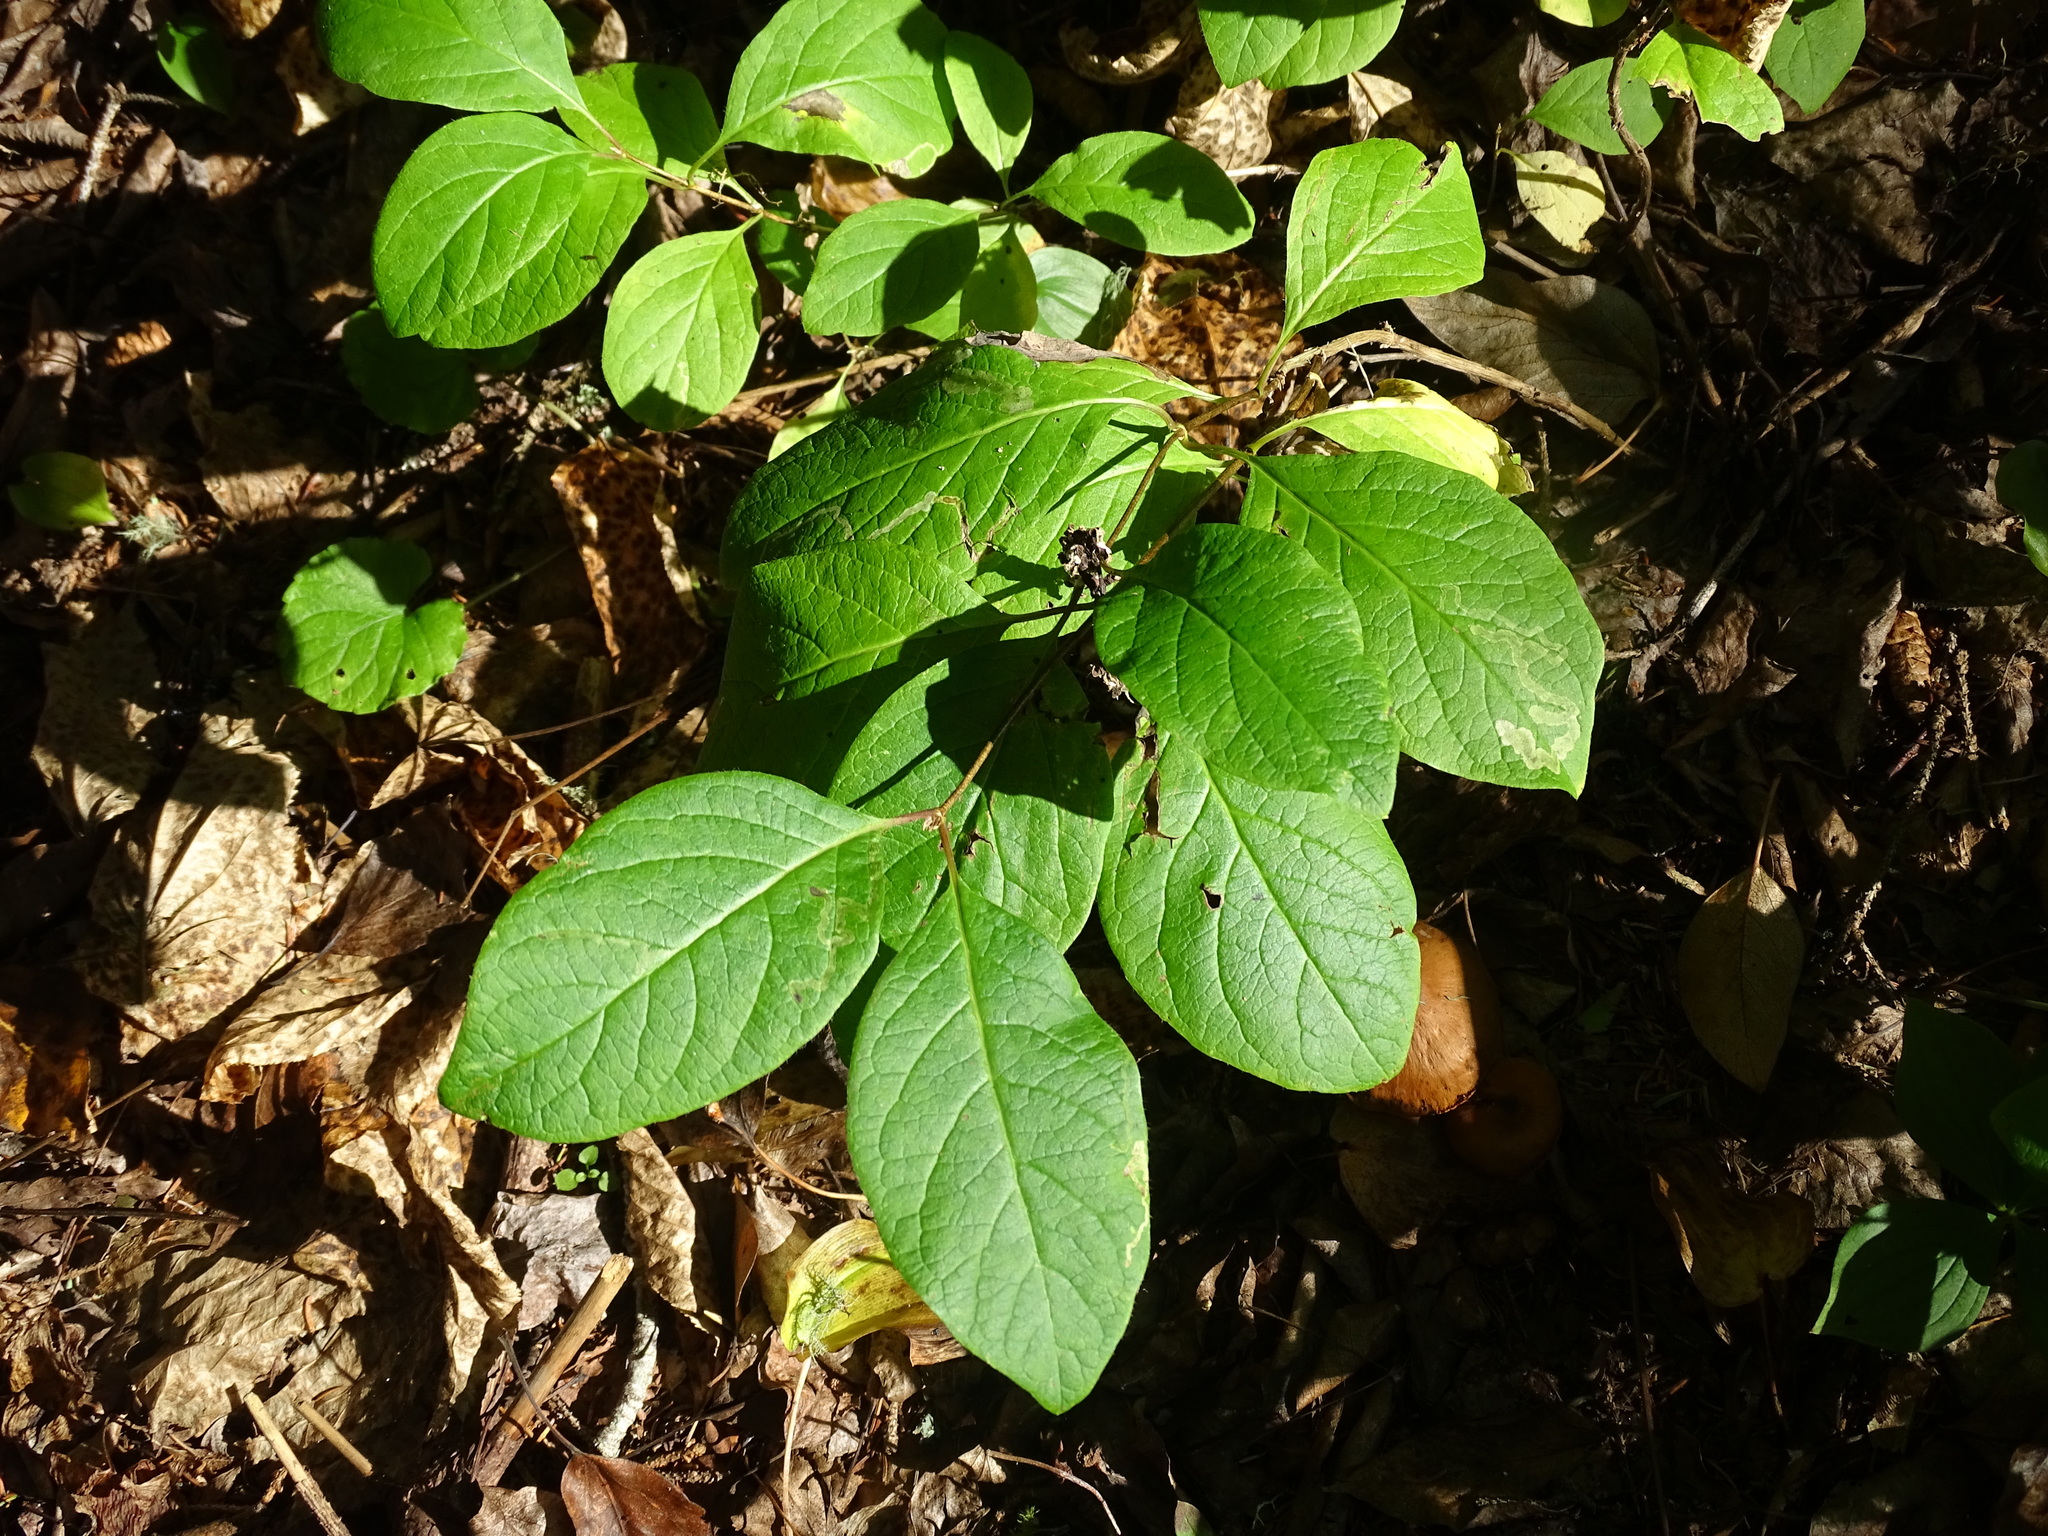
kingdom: Plantae
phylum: Tracheophyta
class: Magnoliopsida
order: Dipsacales
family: Caprifoliaceae
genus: Lonicera
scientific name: Lonicera dioica
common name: Limber honeysuckle
